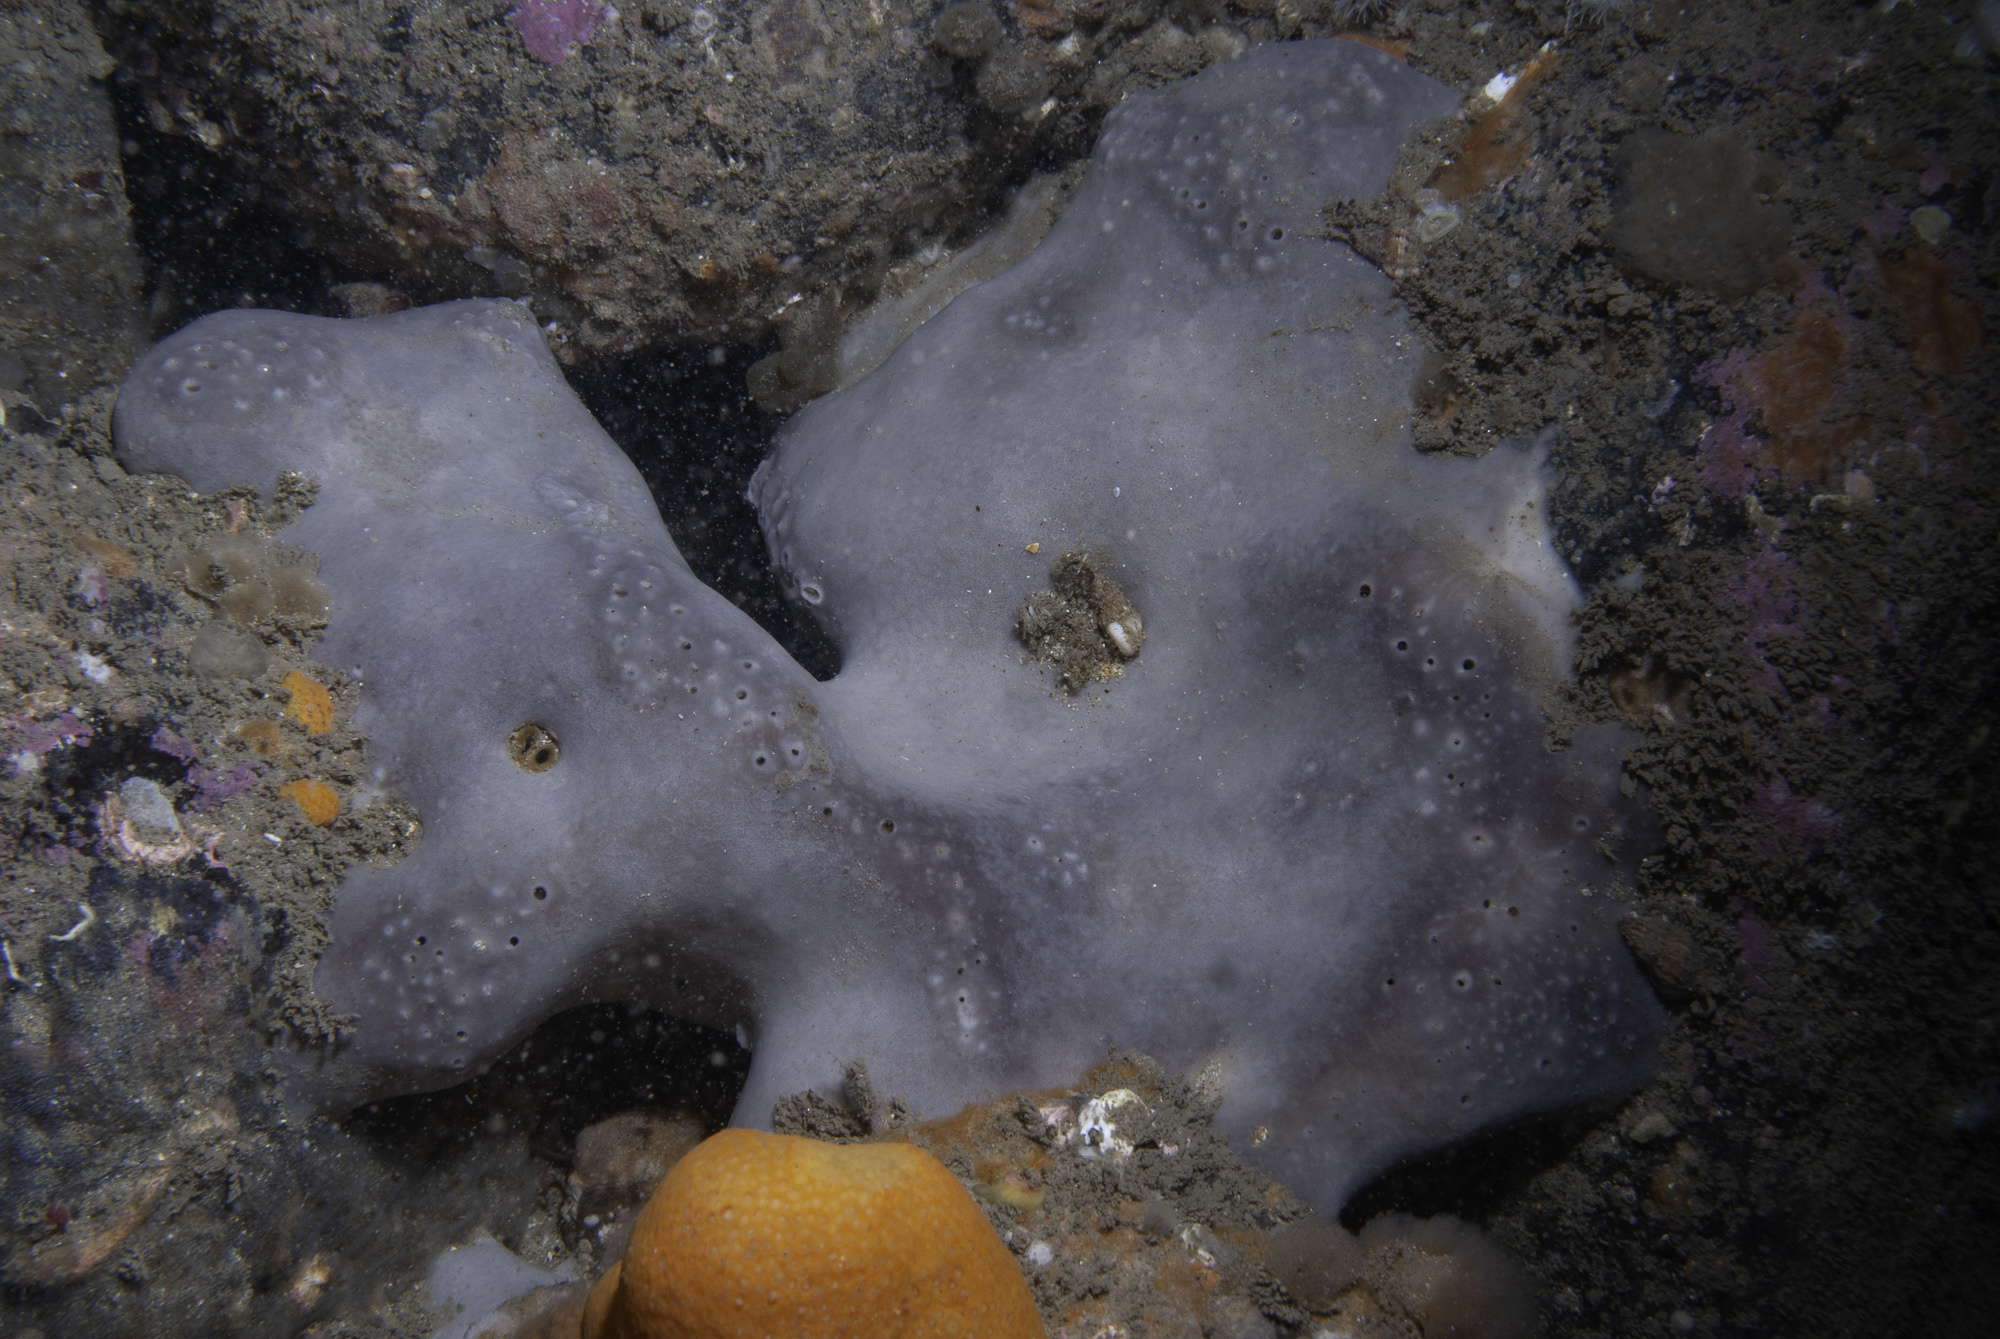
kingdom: Animalia
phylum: Porifera
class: Demospongiae
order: Tetractinellida
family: Geodiidae
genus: Pachymatisma
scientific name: Pachymatisma johnstonia
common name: Elephant ear sponge
